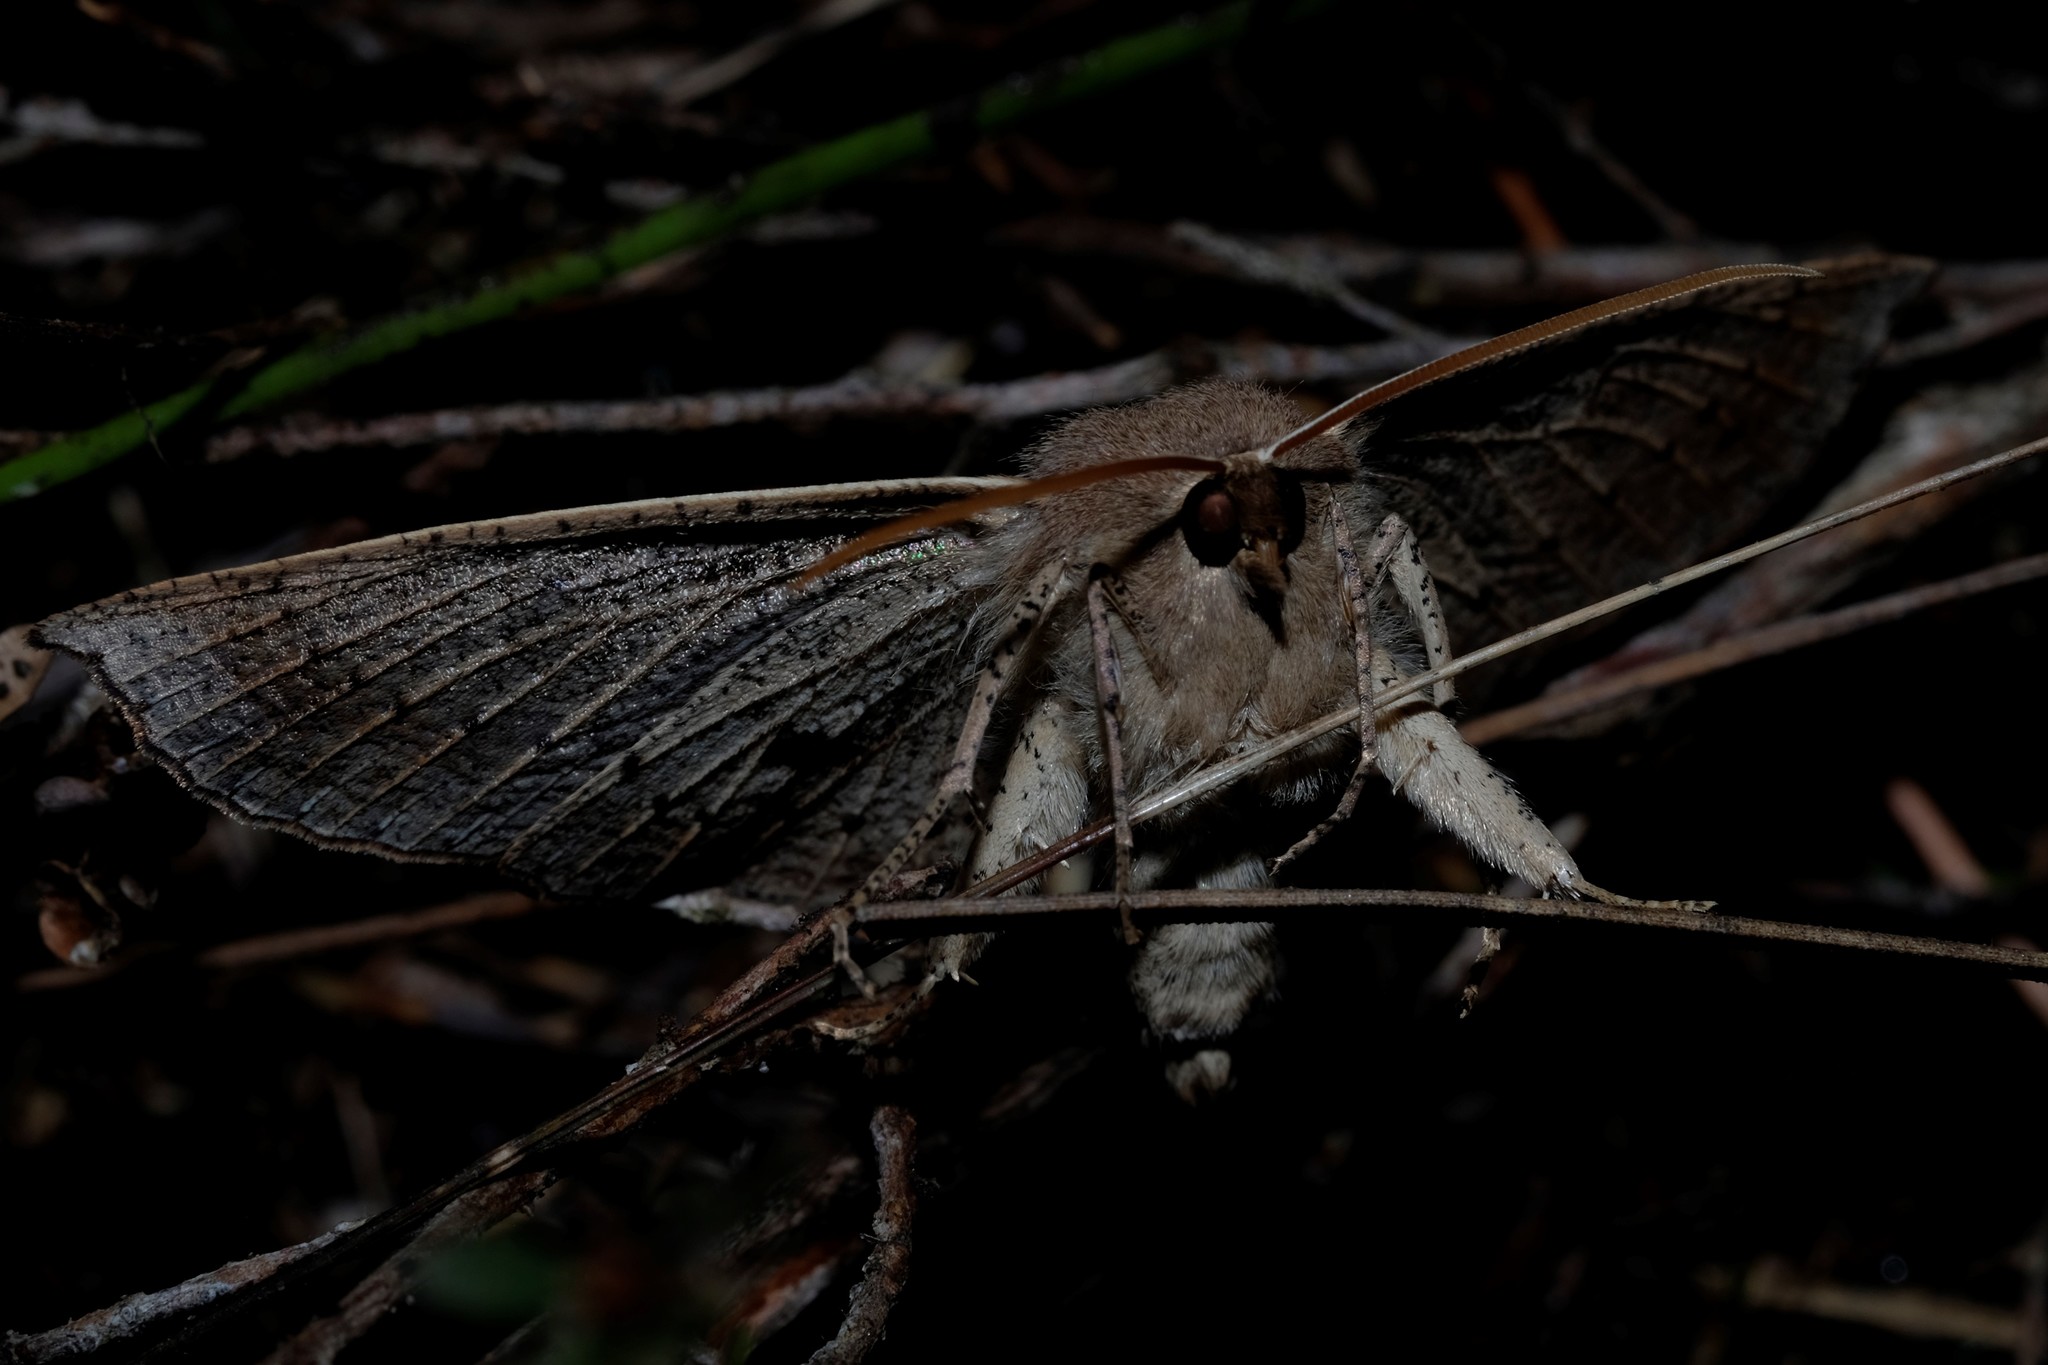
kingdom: Animalia
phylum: Arthropoda
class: Insecta
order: Lepidoptera
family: Geometridae
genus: Idiodes
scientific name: Idiodes siculoides
